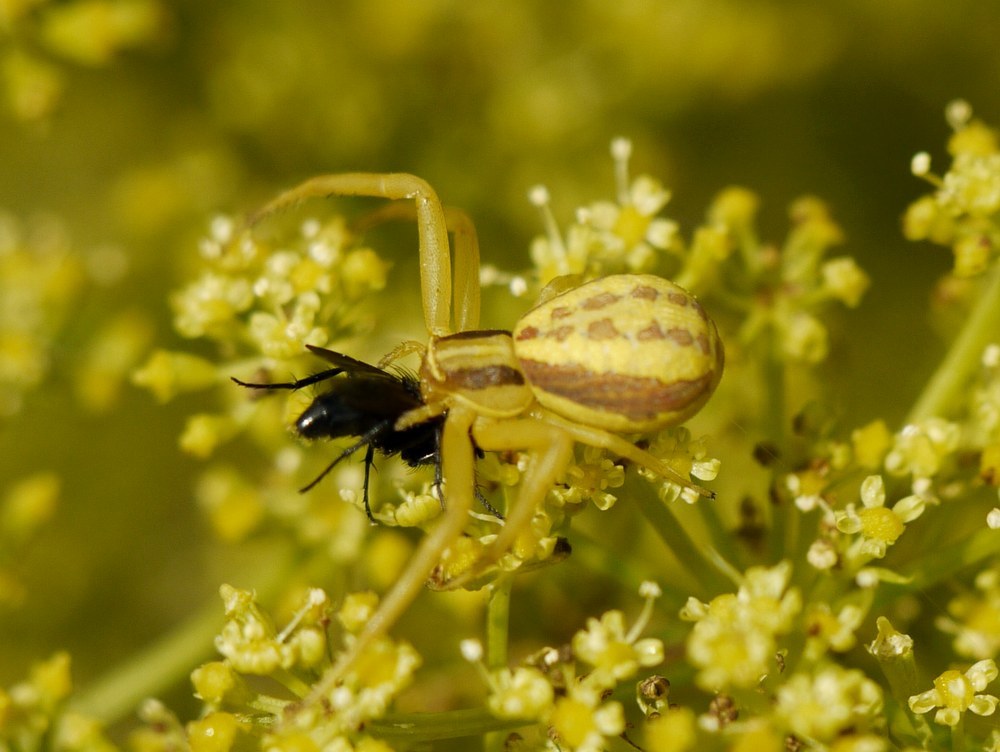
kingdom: Animalia
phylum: Arthropoda
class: Arachnida
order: Araneae
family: Thomisidae
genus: Runcinia
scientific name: Runcinia grammica
